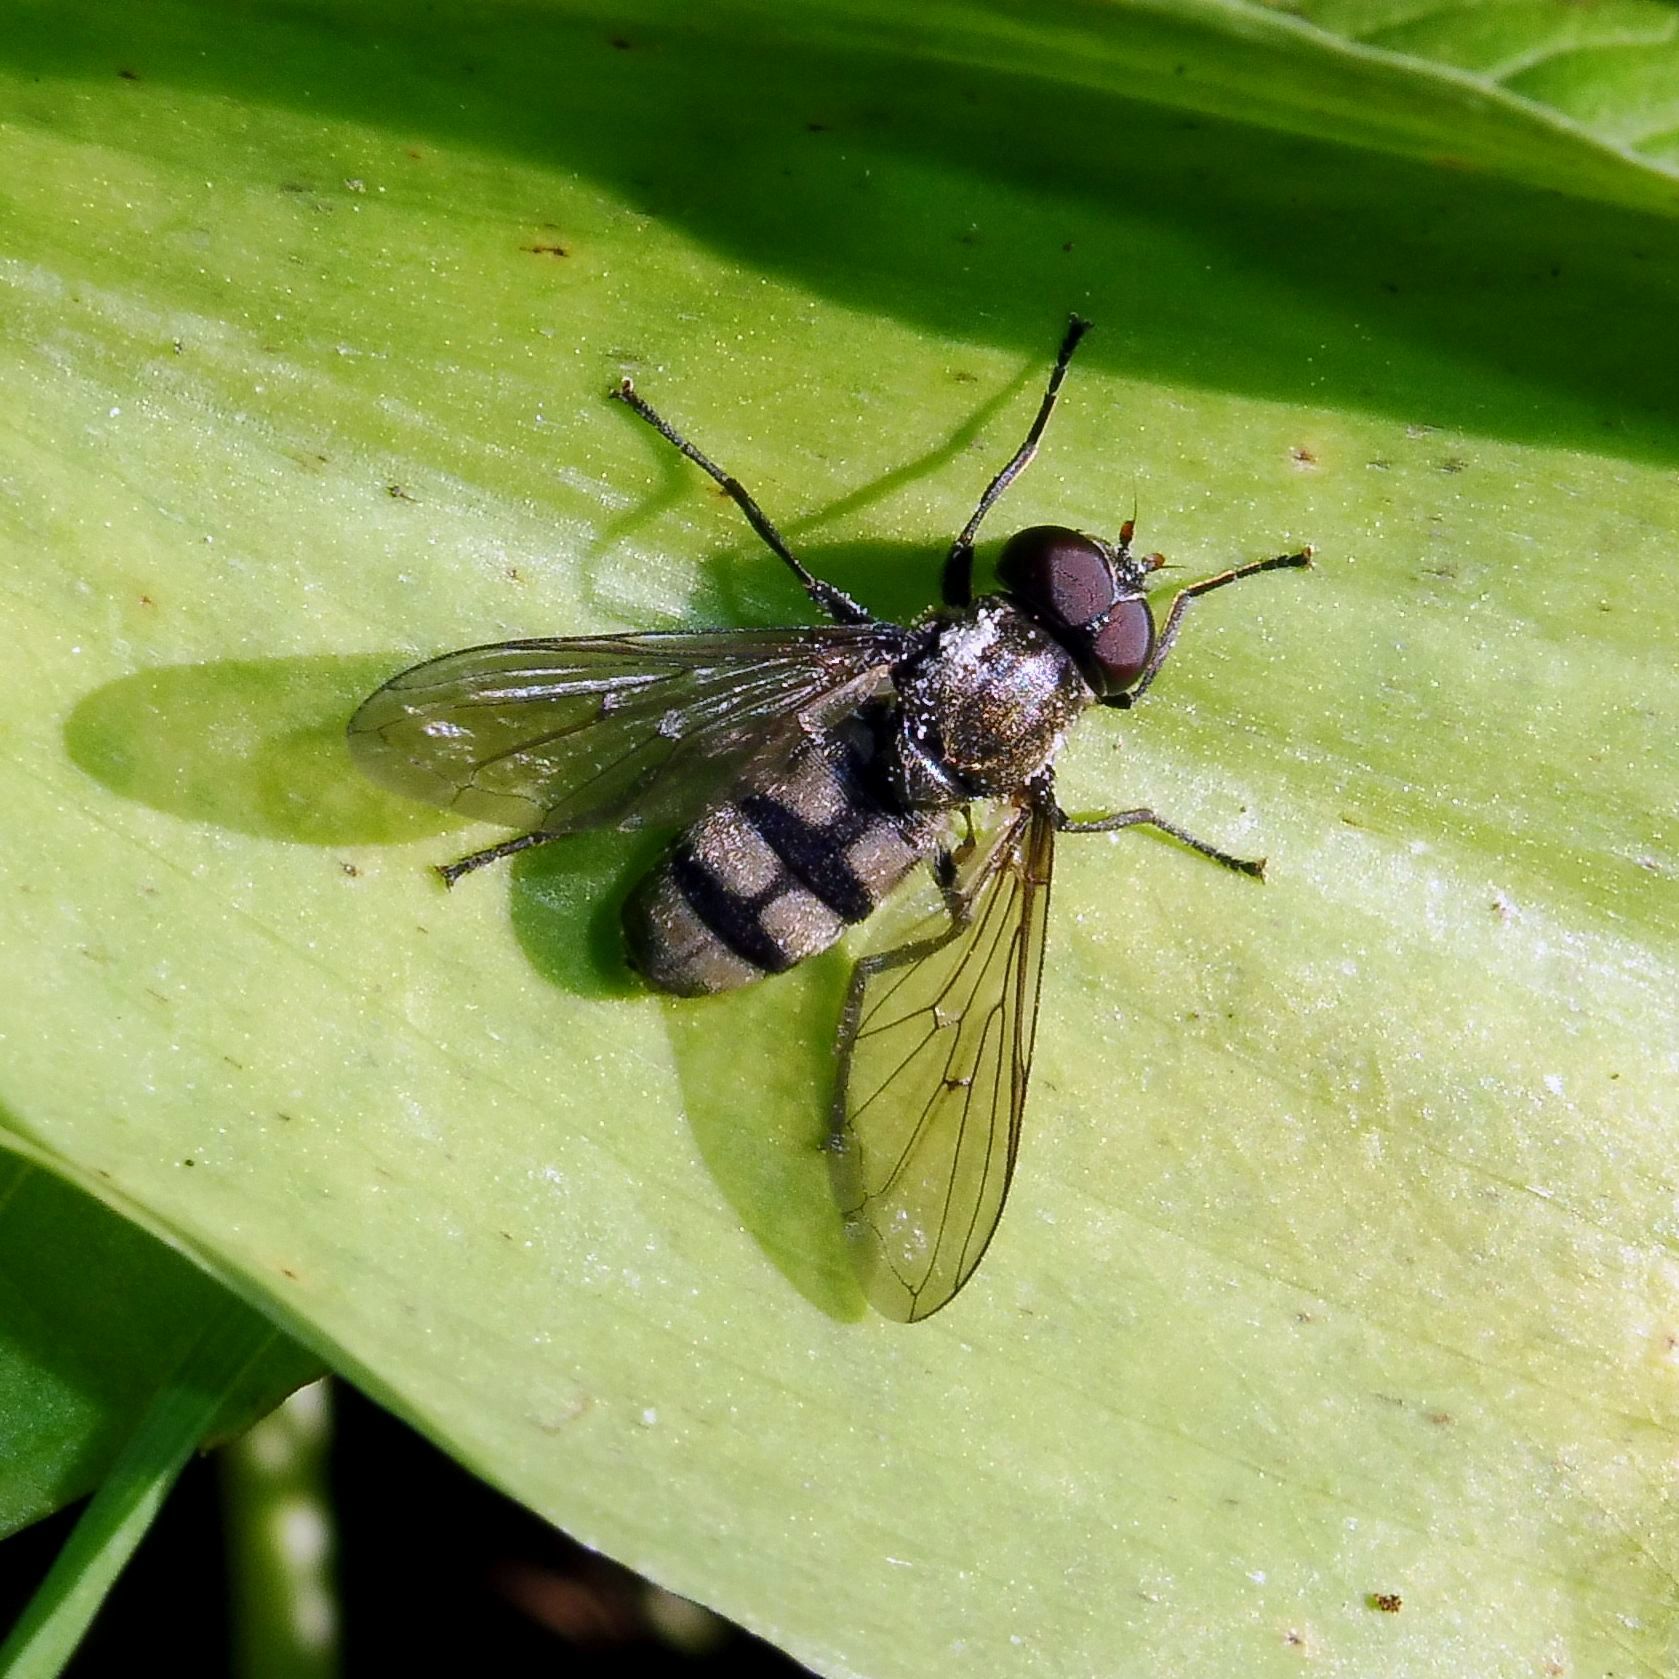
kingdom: Animalia
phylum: Arthropoda
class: Insecta
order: Diptera
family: Syrphidae
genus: Portevinia
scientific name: Portevinia maculata
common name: Ramson's hoverfly
